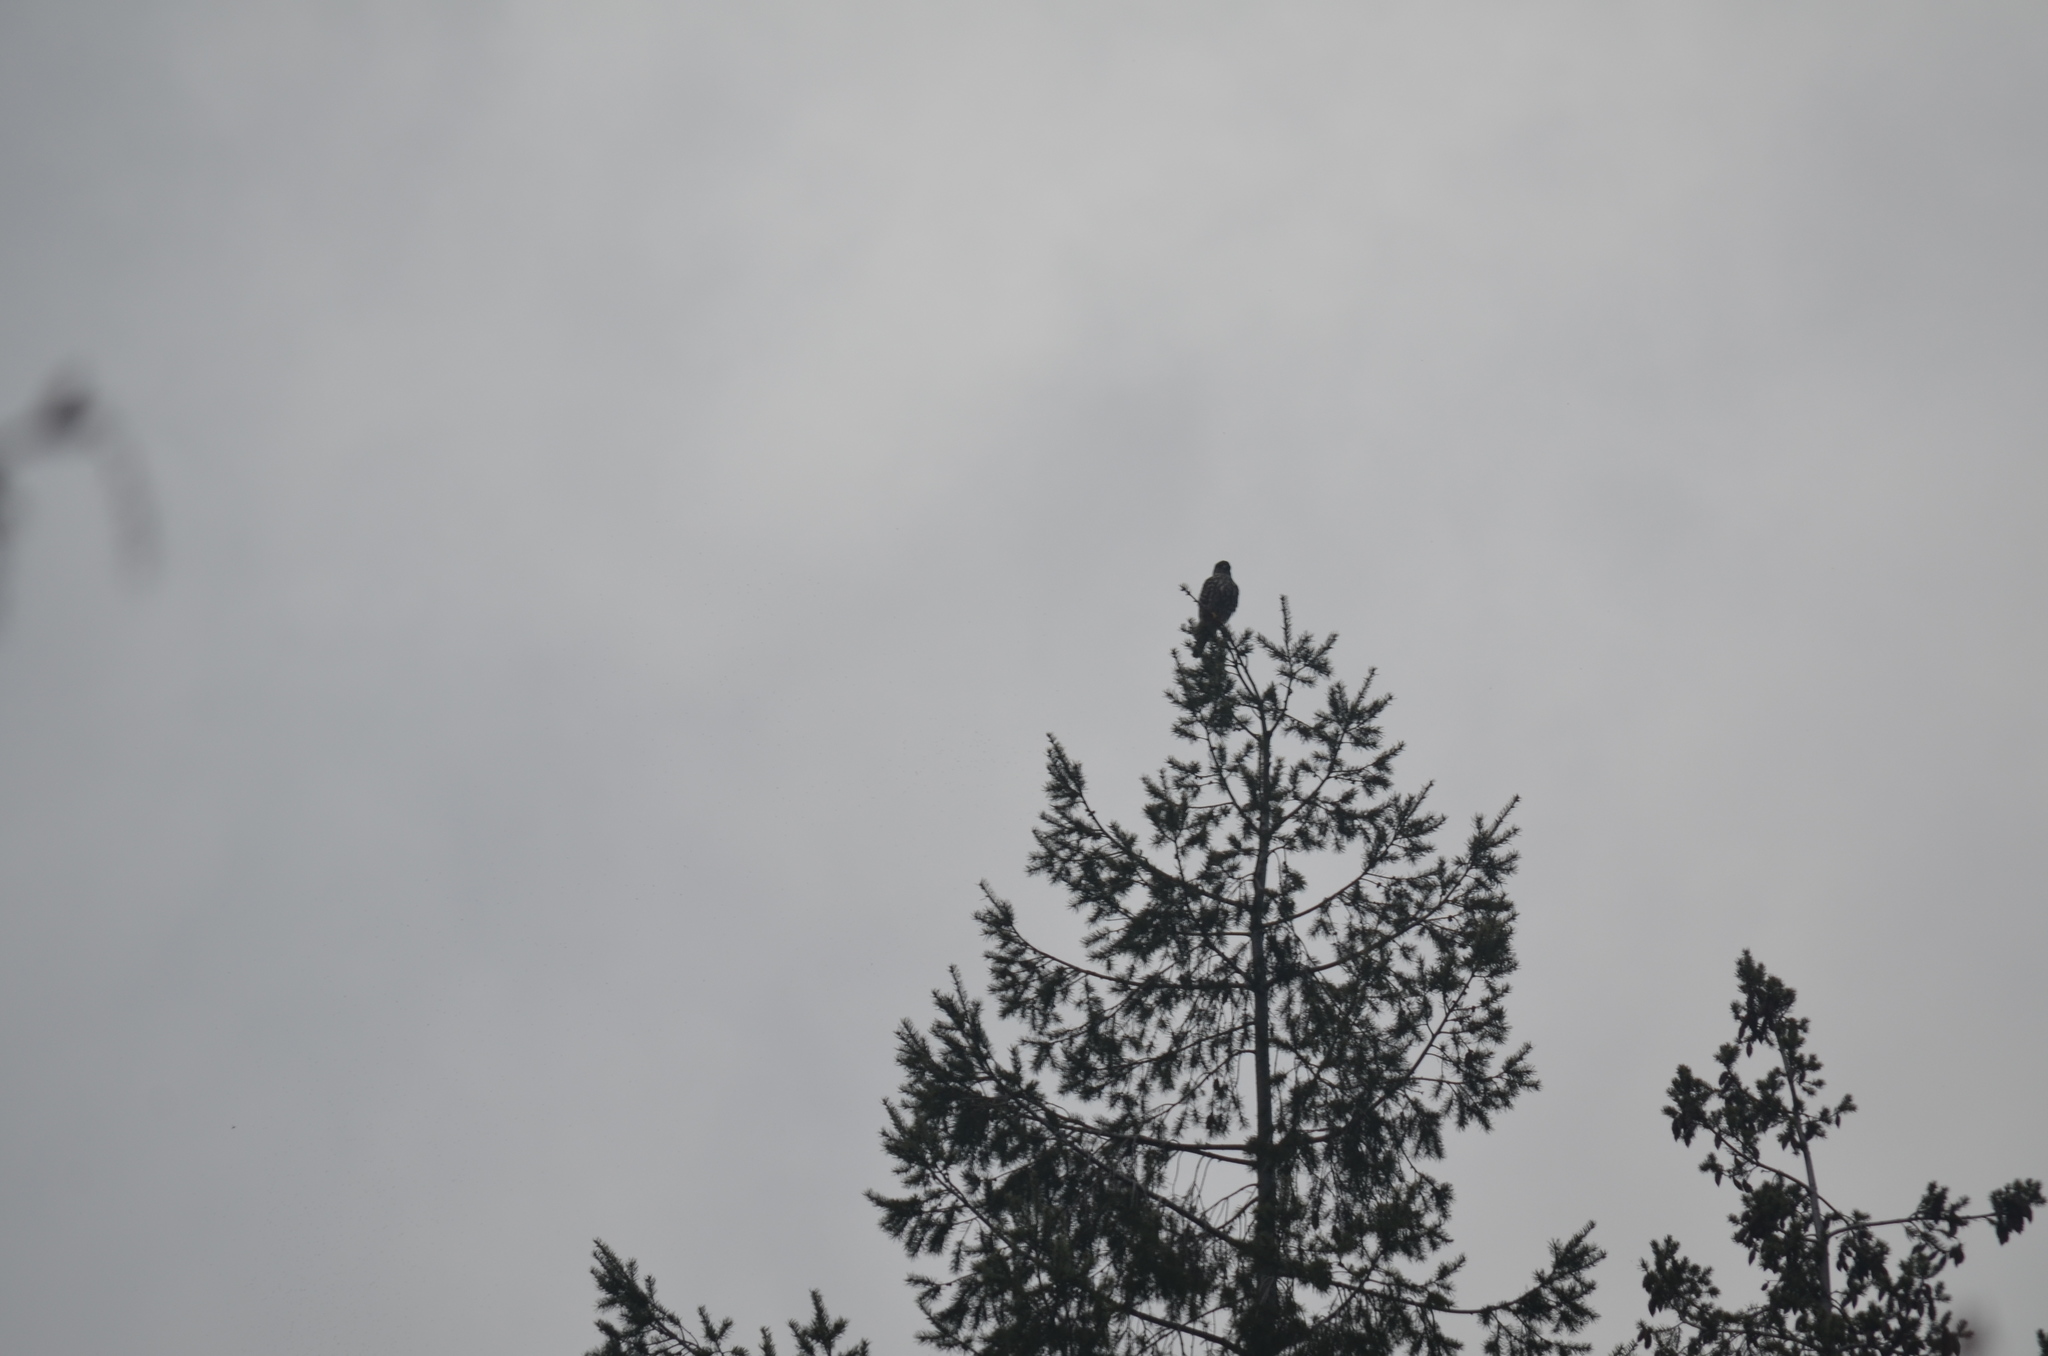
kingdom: Animalia
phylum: Chordata
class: Aves
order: Falconiformes
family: Falconidae
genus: Falco
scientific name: Falco columbarius
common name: Merlin
